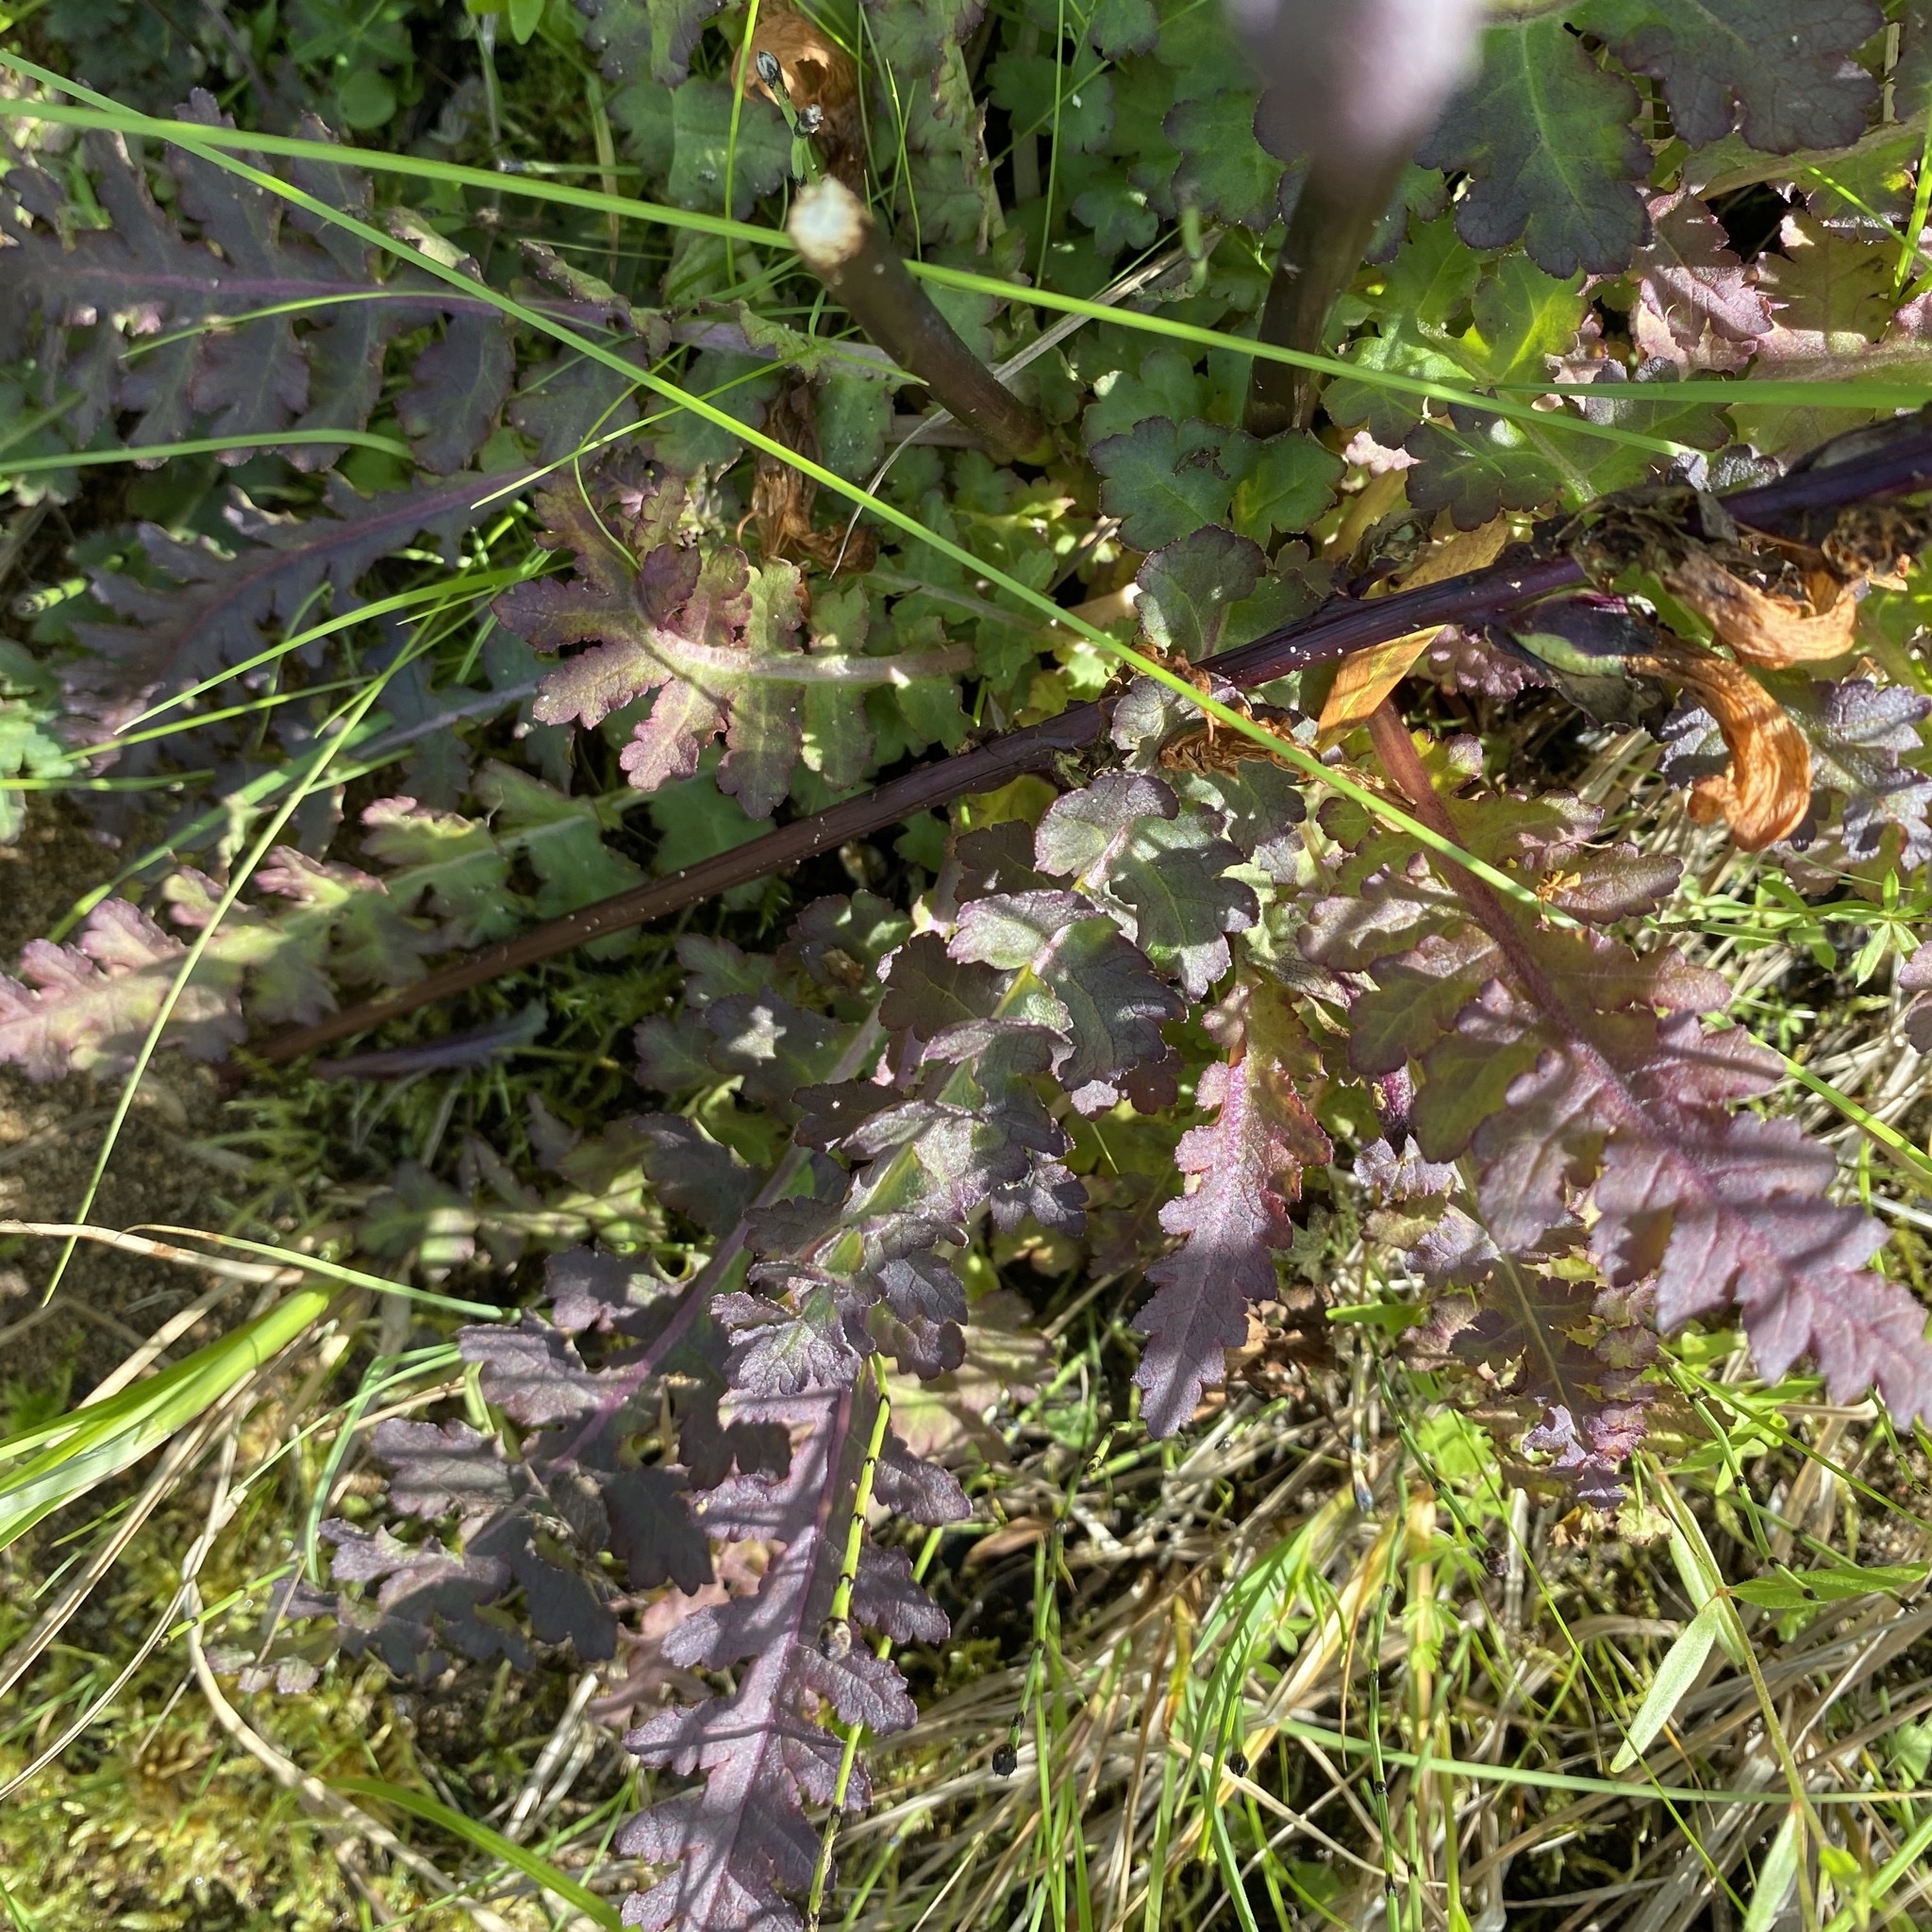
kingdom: Plantae
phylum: Tracheophyta
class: Magnoliopsida
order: Lamiales
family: Orobanchaceae
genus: Pedicularis
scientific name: Pedicularis sceptrum-carolinum
